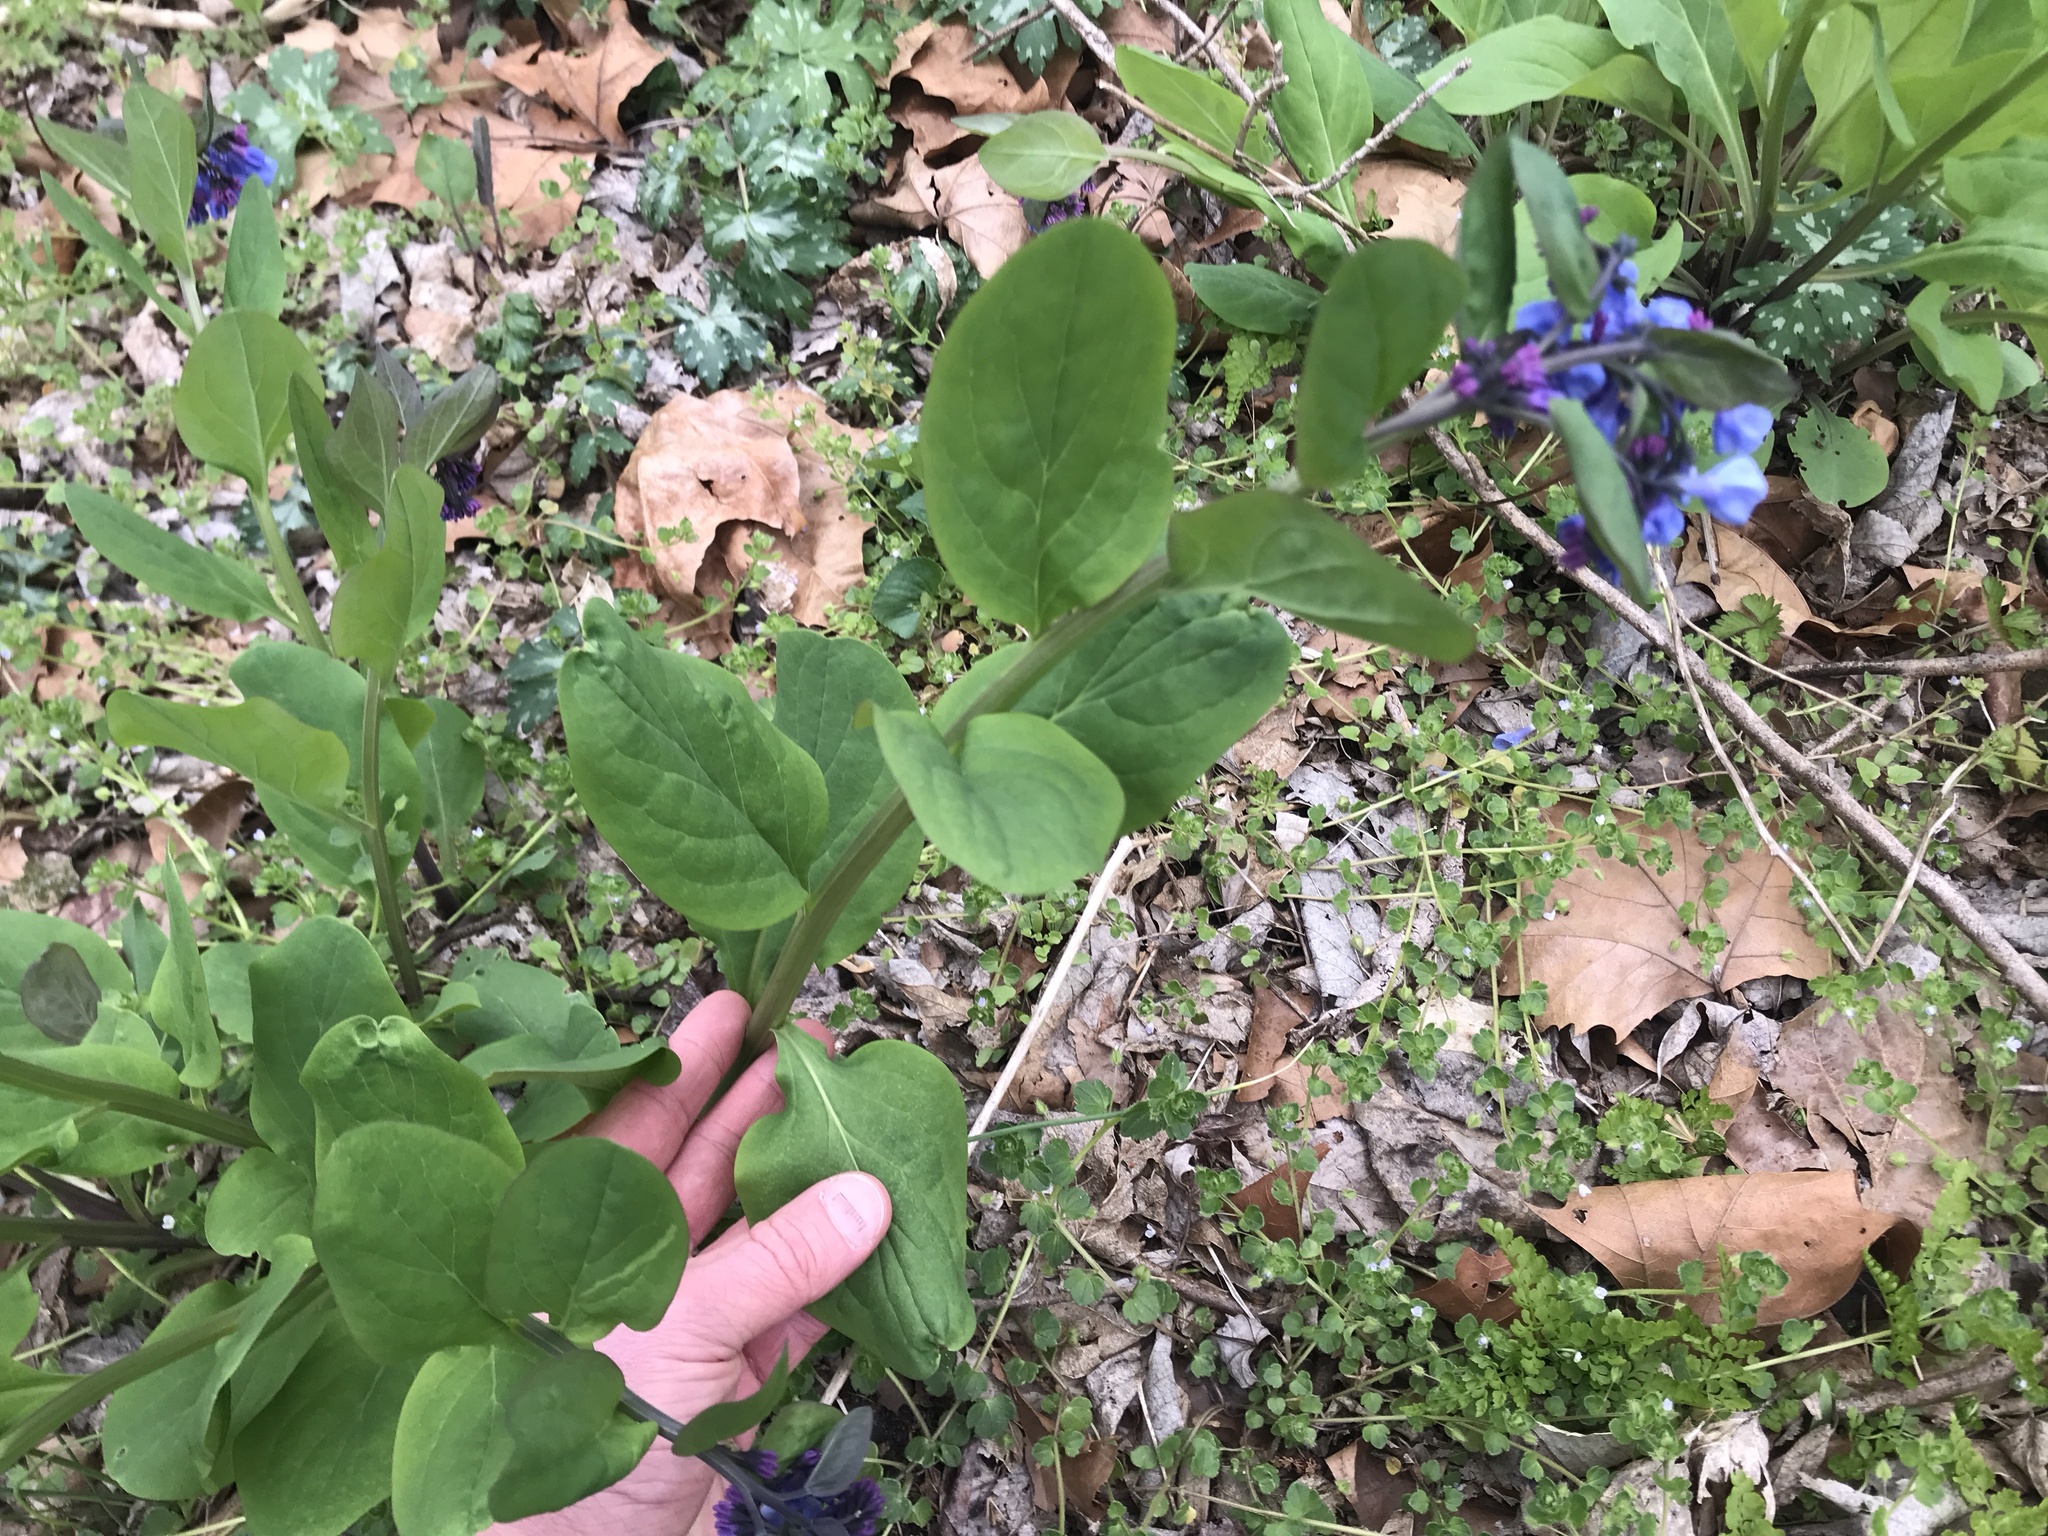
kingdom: Plantae
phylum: Tracheophyta
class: Magnoliopsida
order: Boraginales
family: Boraginaceae
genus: Mertensia
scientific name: Mertensia virginica
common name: Virginia bluebells
